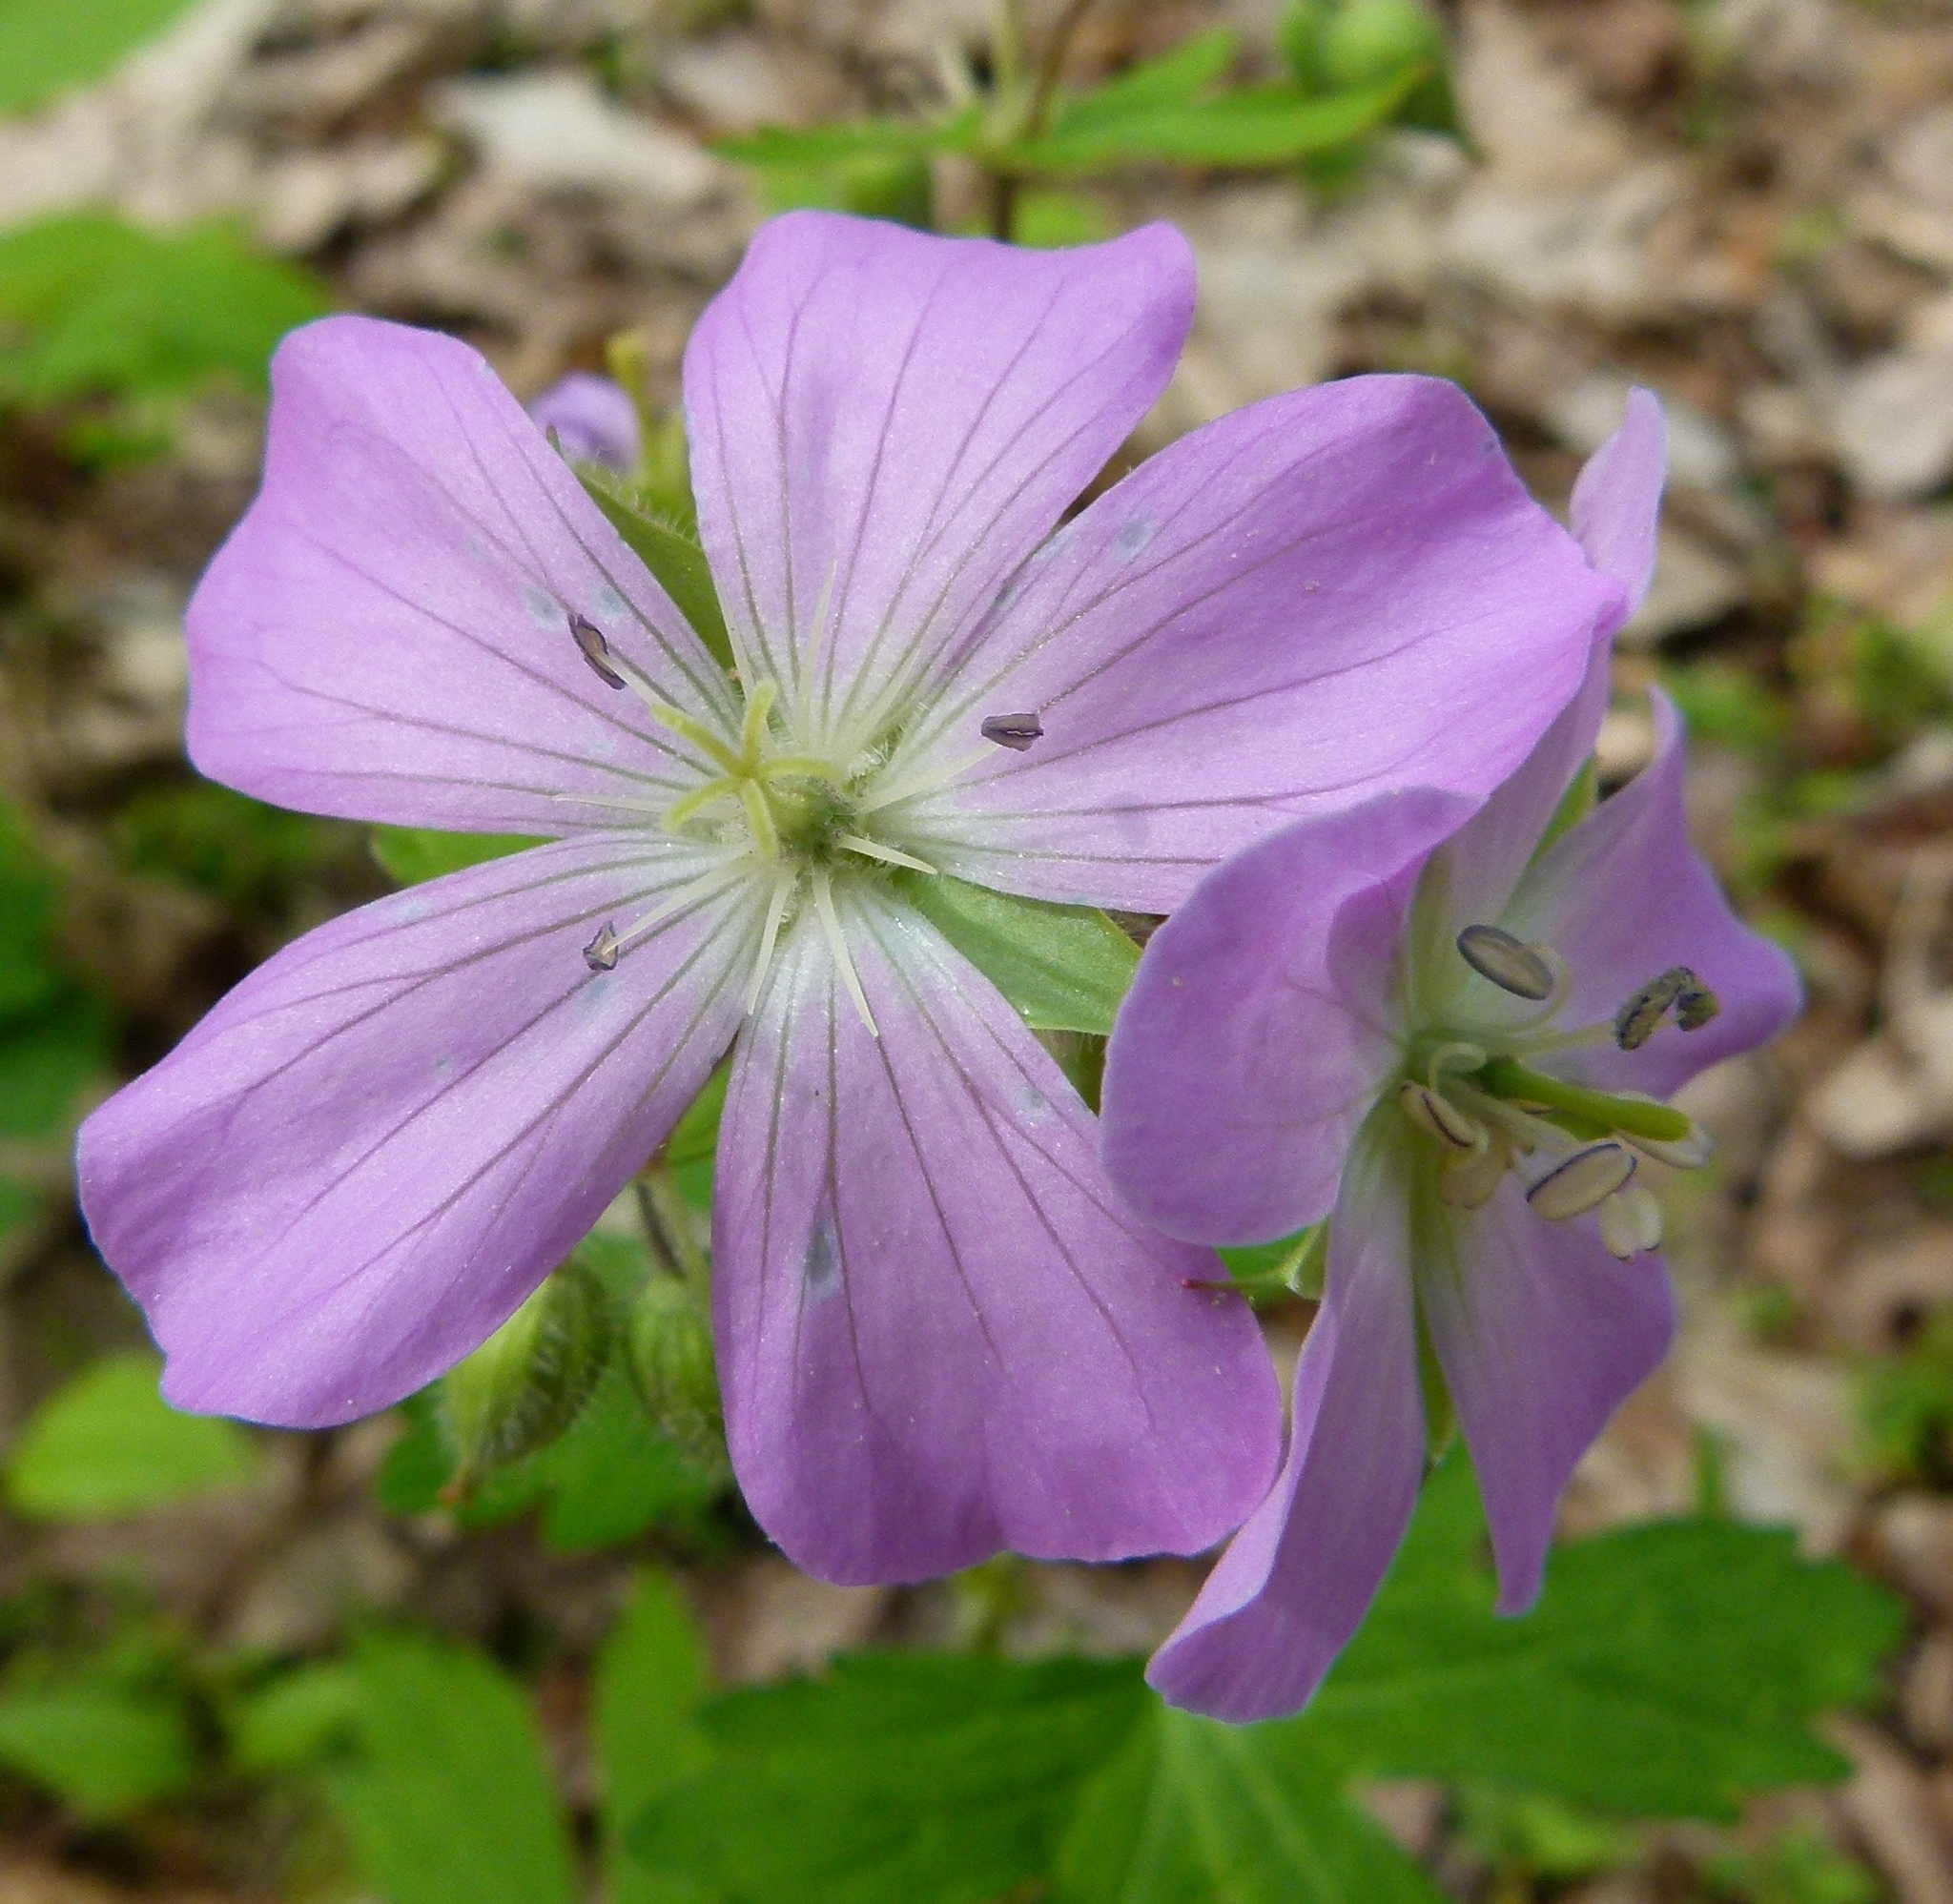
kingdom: Plantae
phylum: Tracheophyta
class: Magnoliopsida
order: Geraniales
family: Geraniaceae
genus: Geranium
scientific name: Geranium maculatum
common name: Spotted geranium
